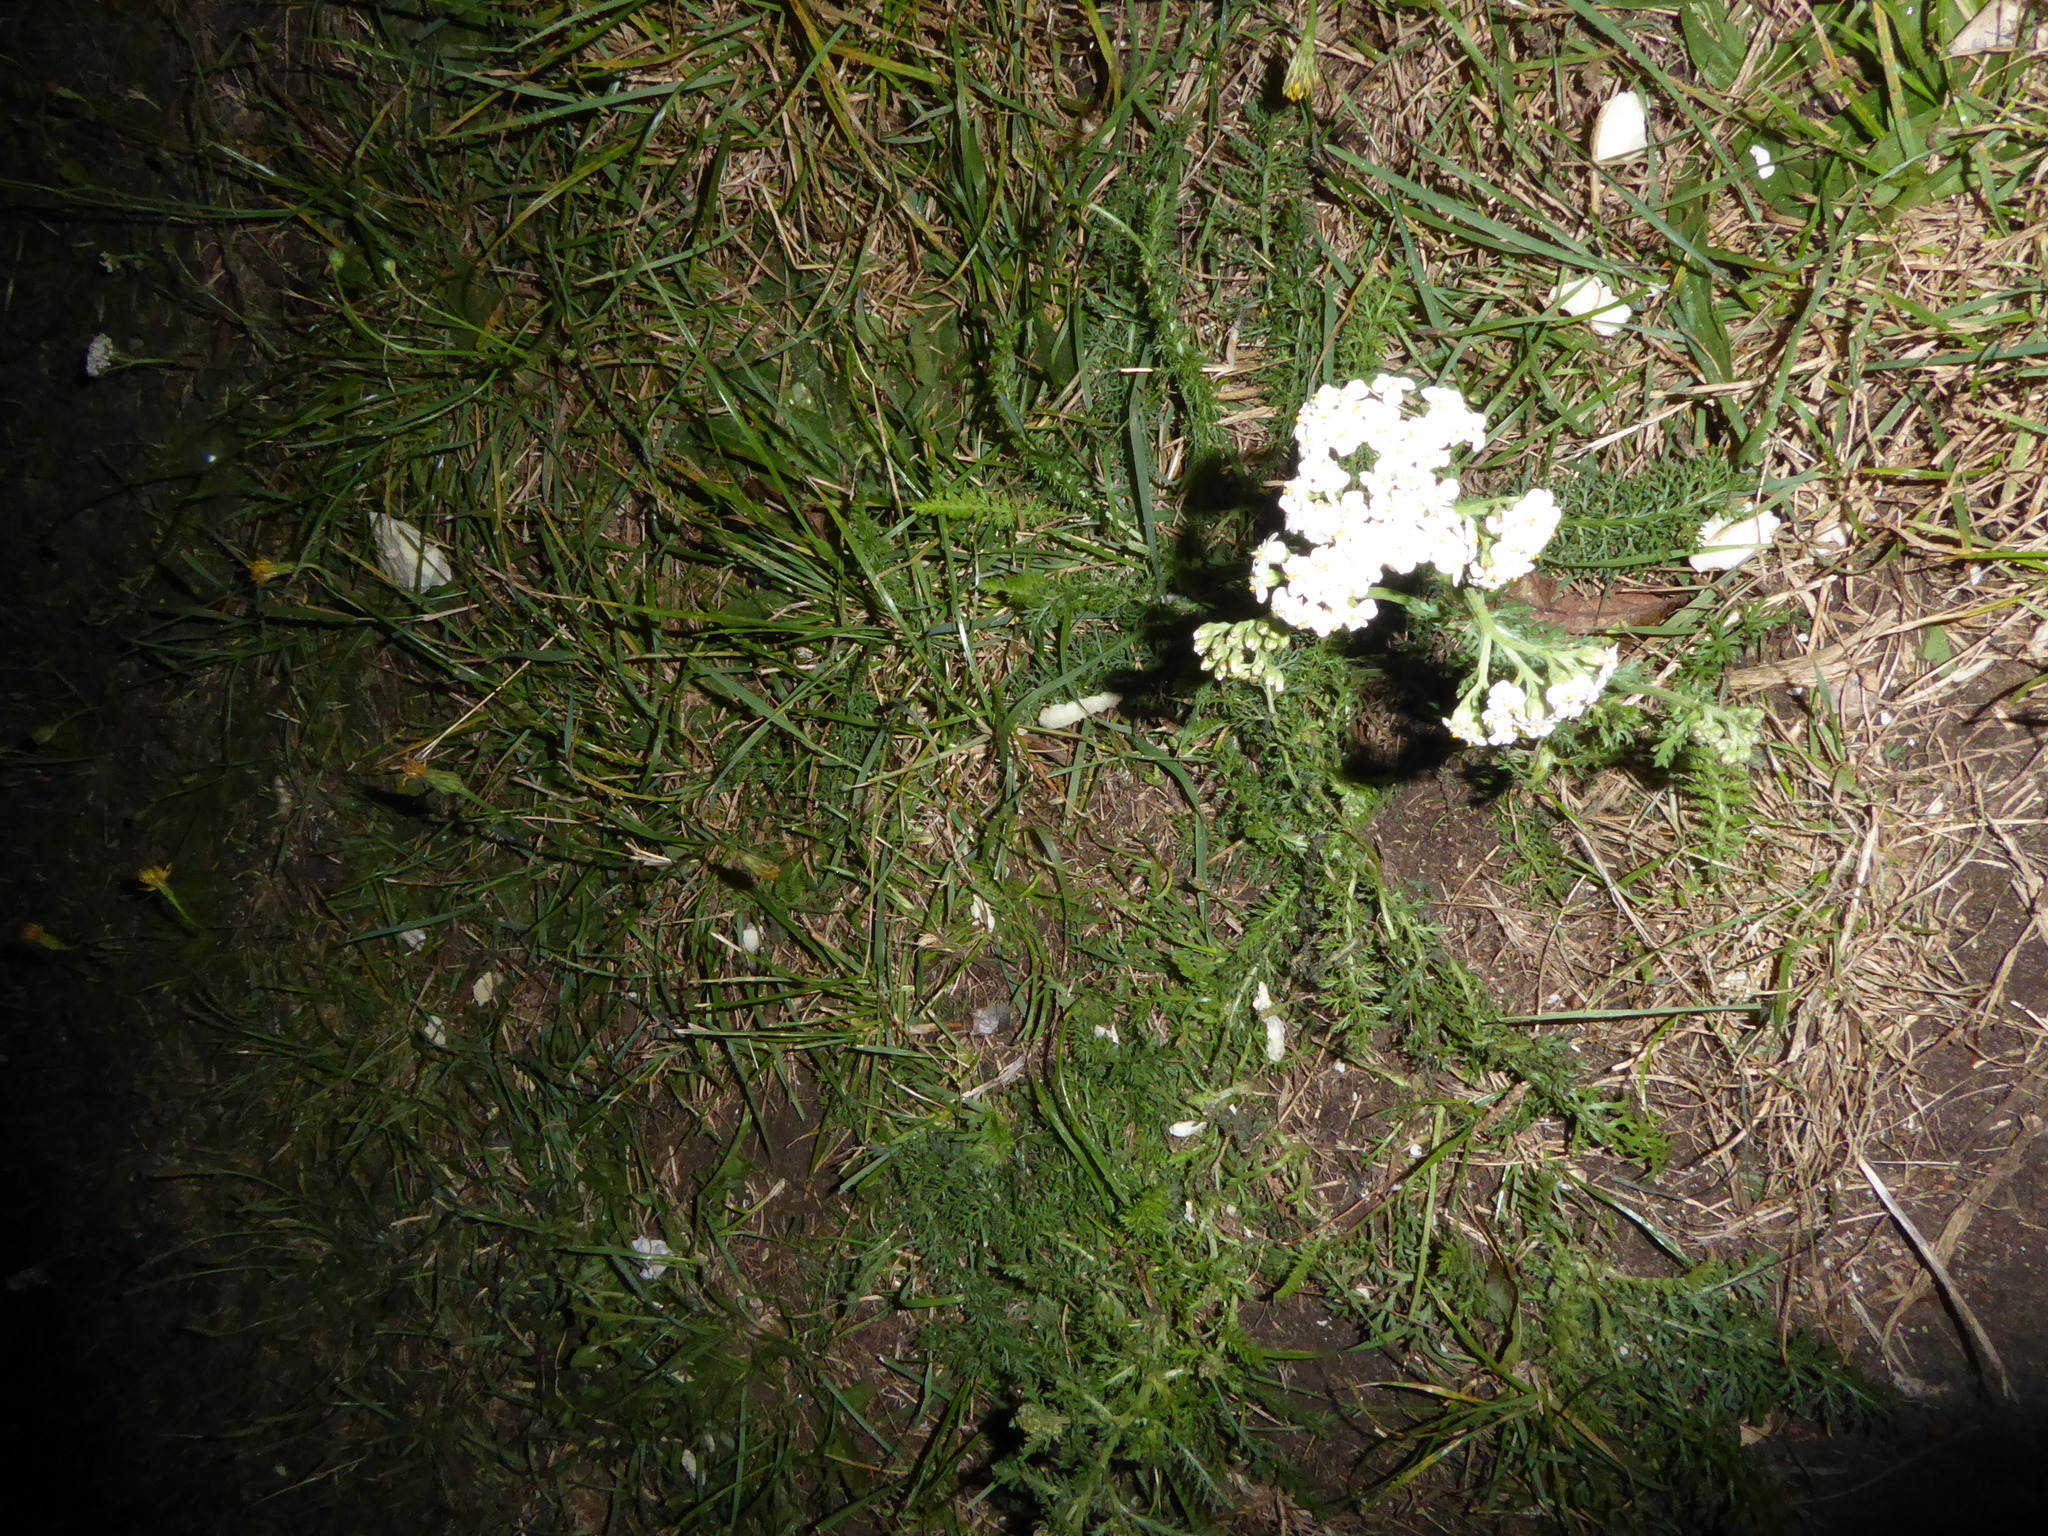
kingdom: Plantae
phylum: Tracheophyta
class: Magnoliopsida
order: Asterales
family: Asteraceae
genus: Achillea
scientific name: Achillea millefolium
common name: Yarrow
